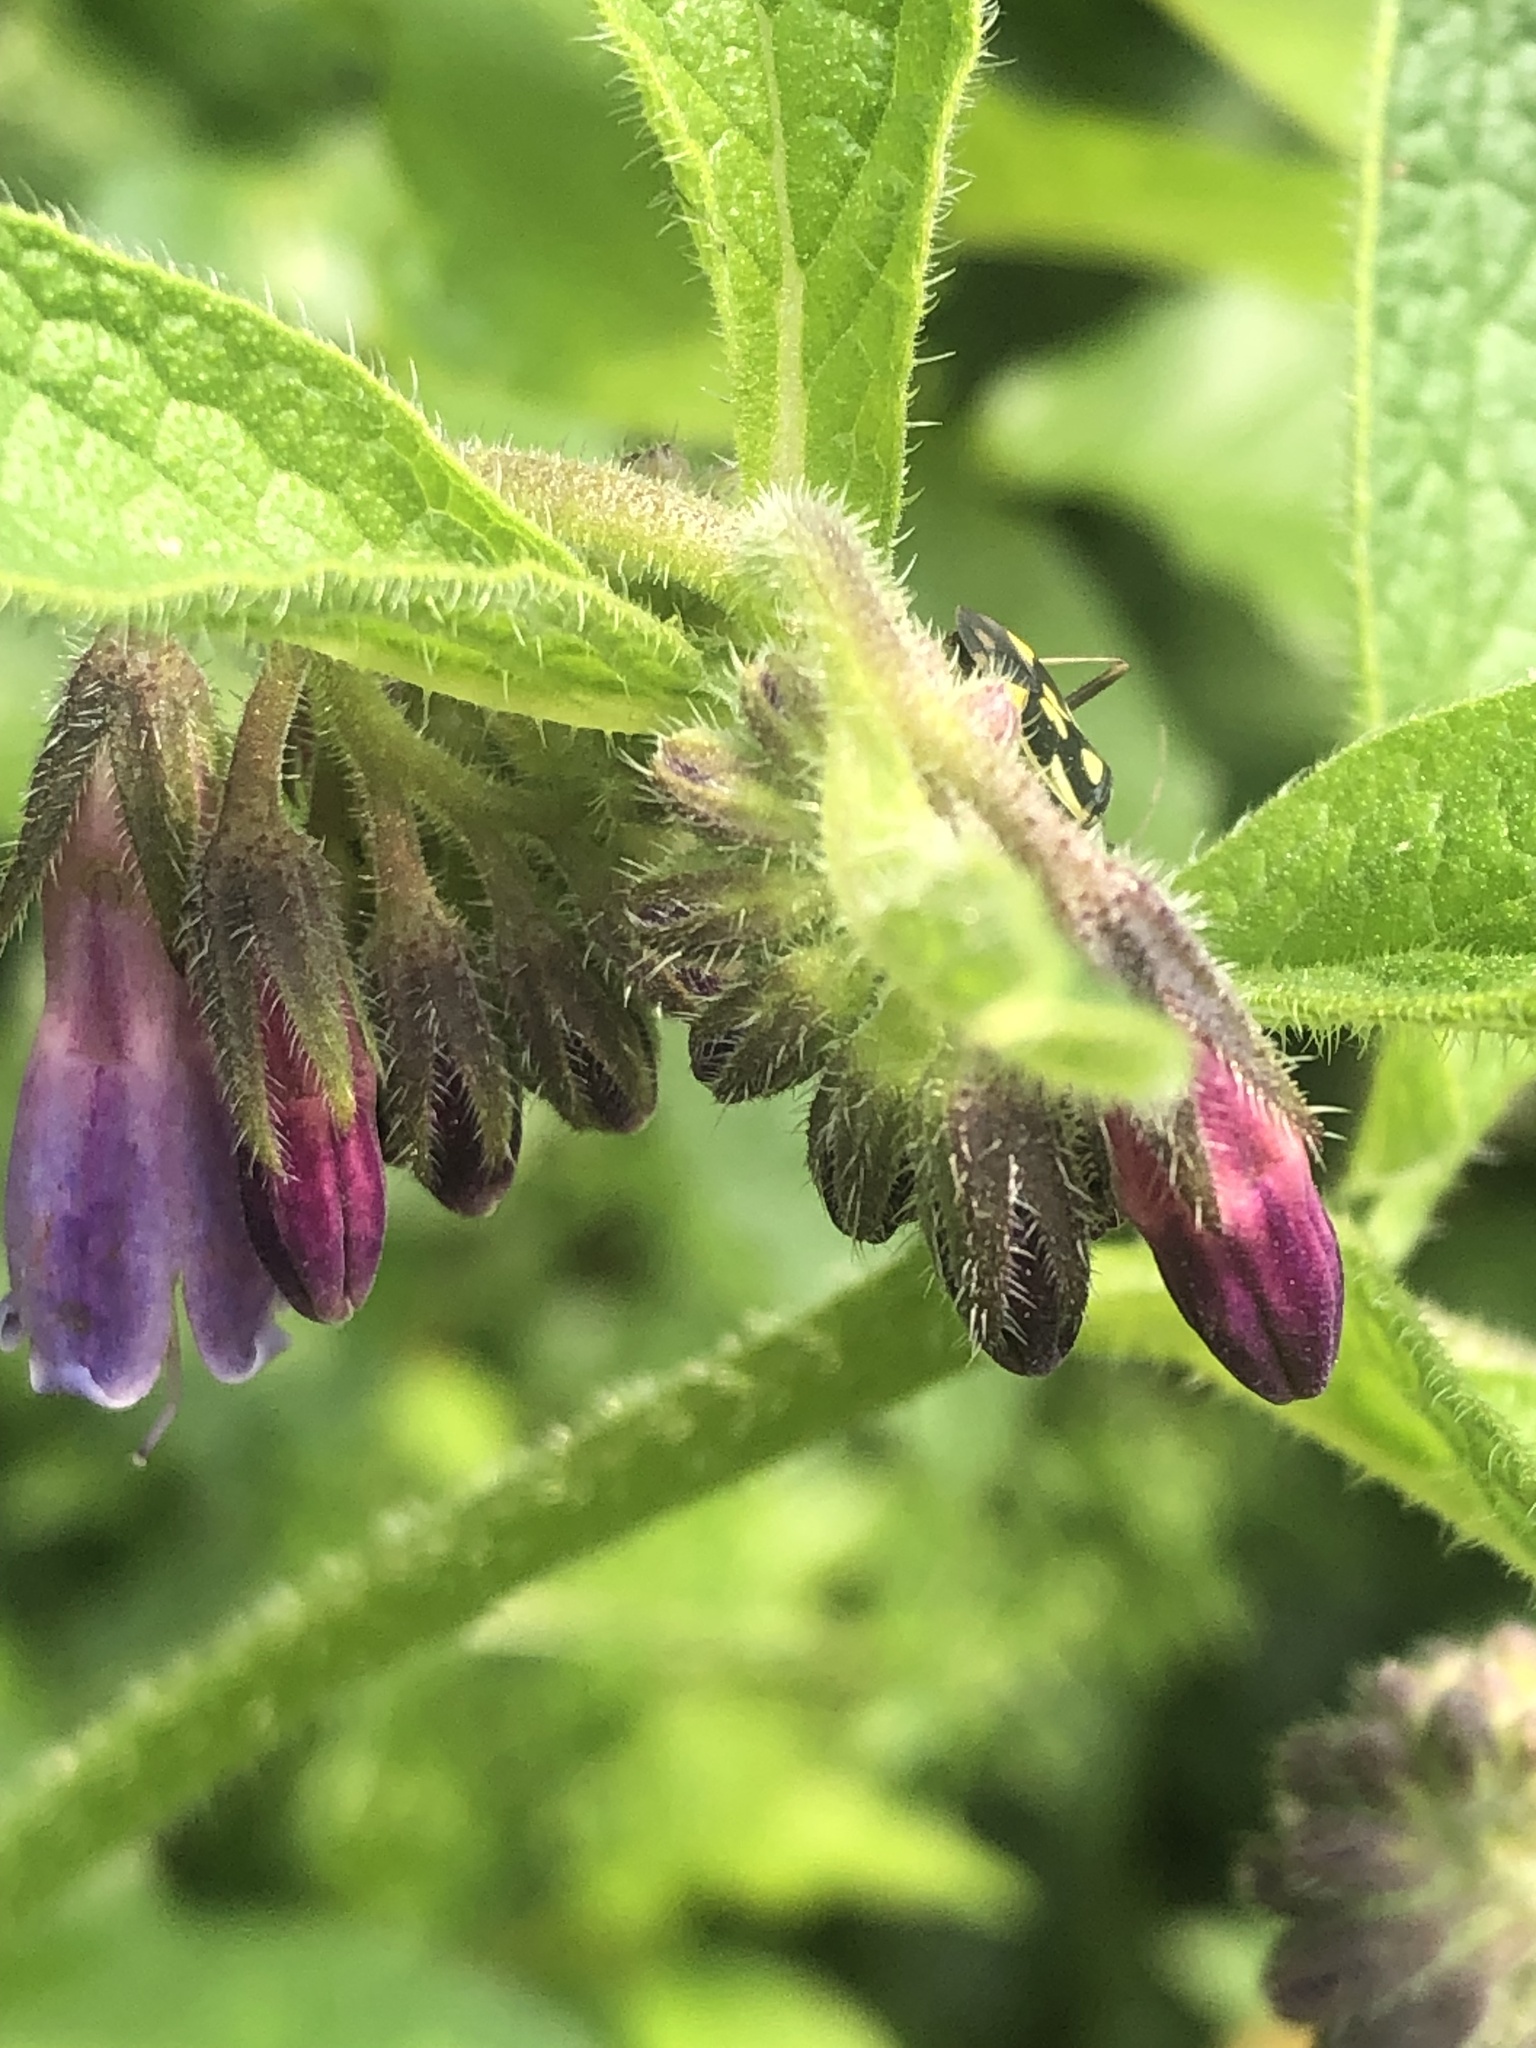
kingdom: Animalia
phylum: Arthropoda
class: Insecta
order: Hemiptera
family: Miridae
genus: Grypocoris
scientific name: Grypocoris stysi
